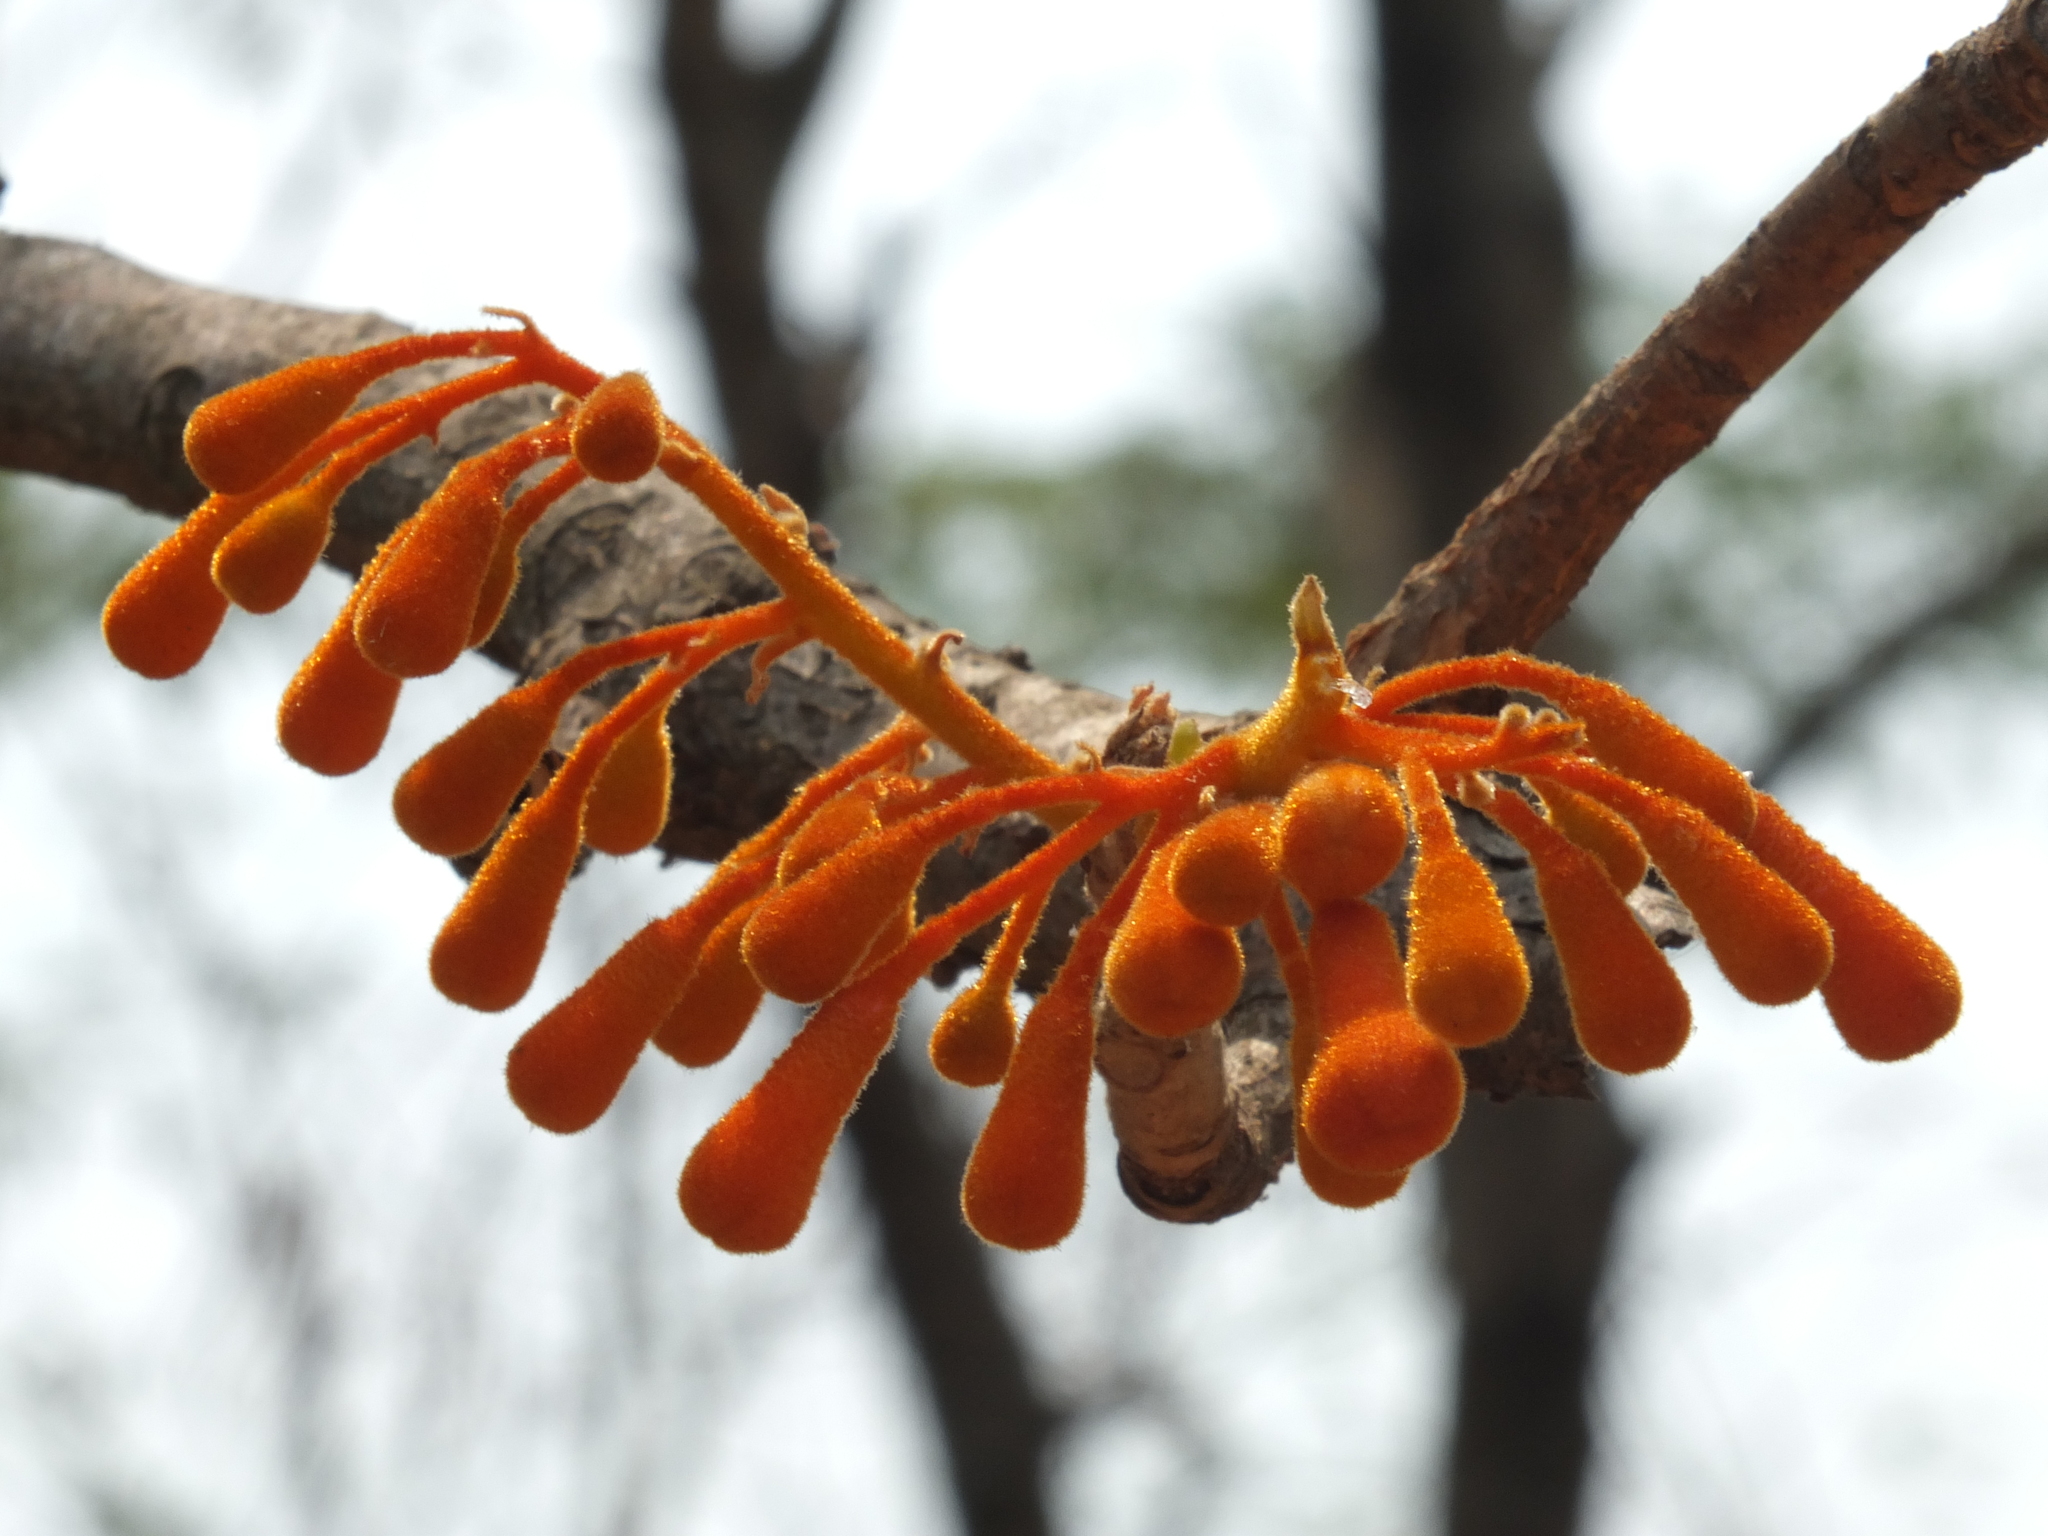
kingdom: Plantae
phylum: Tracheophyta
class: Magnoliopsida
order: Malvales
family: Malvaceae
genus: Firmiana
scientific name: Firmiana colorata
